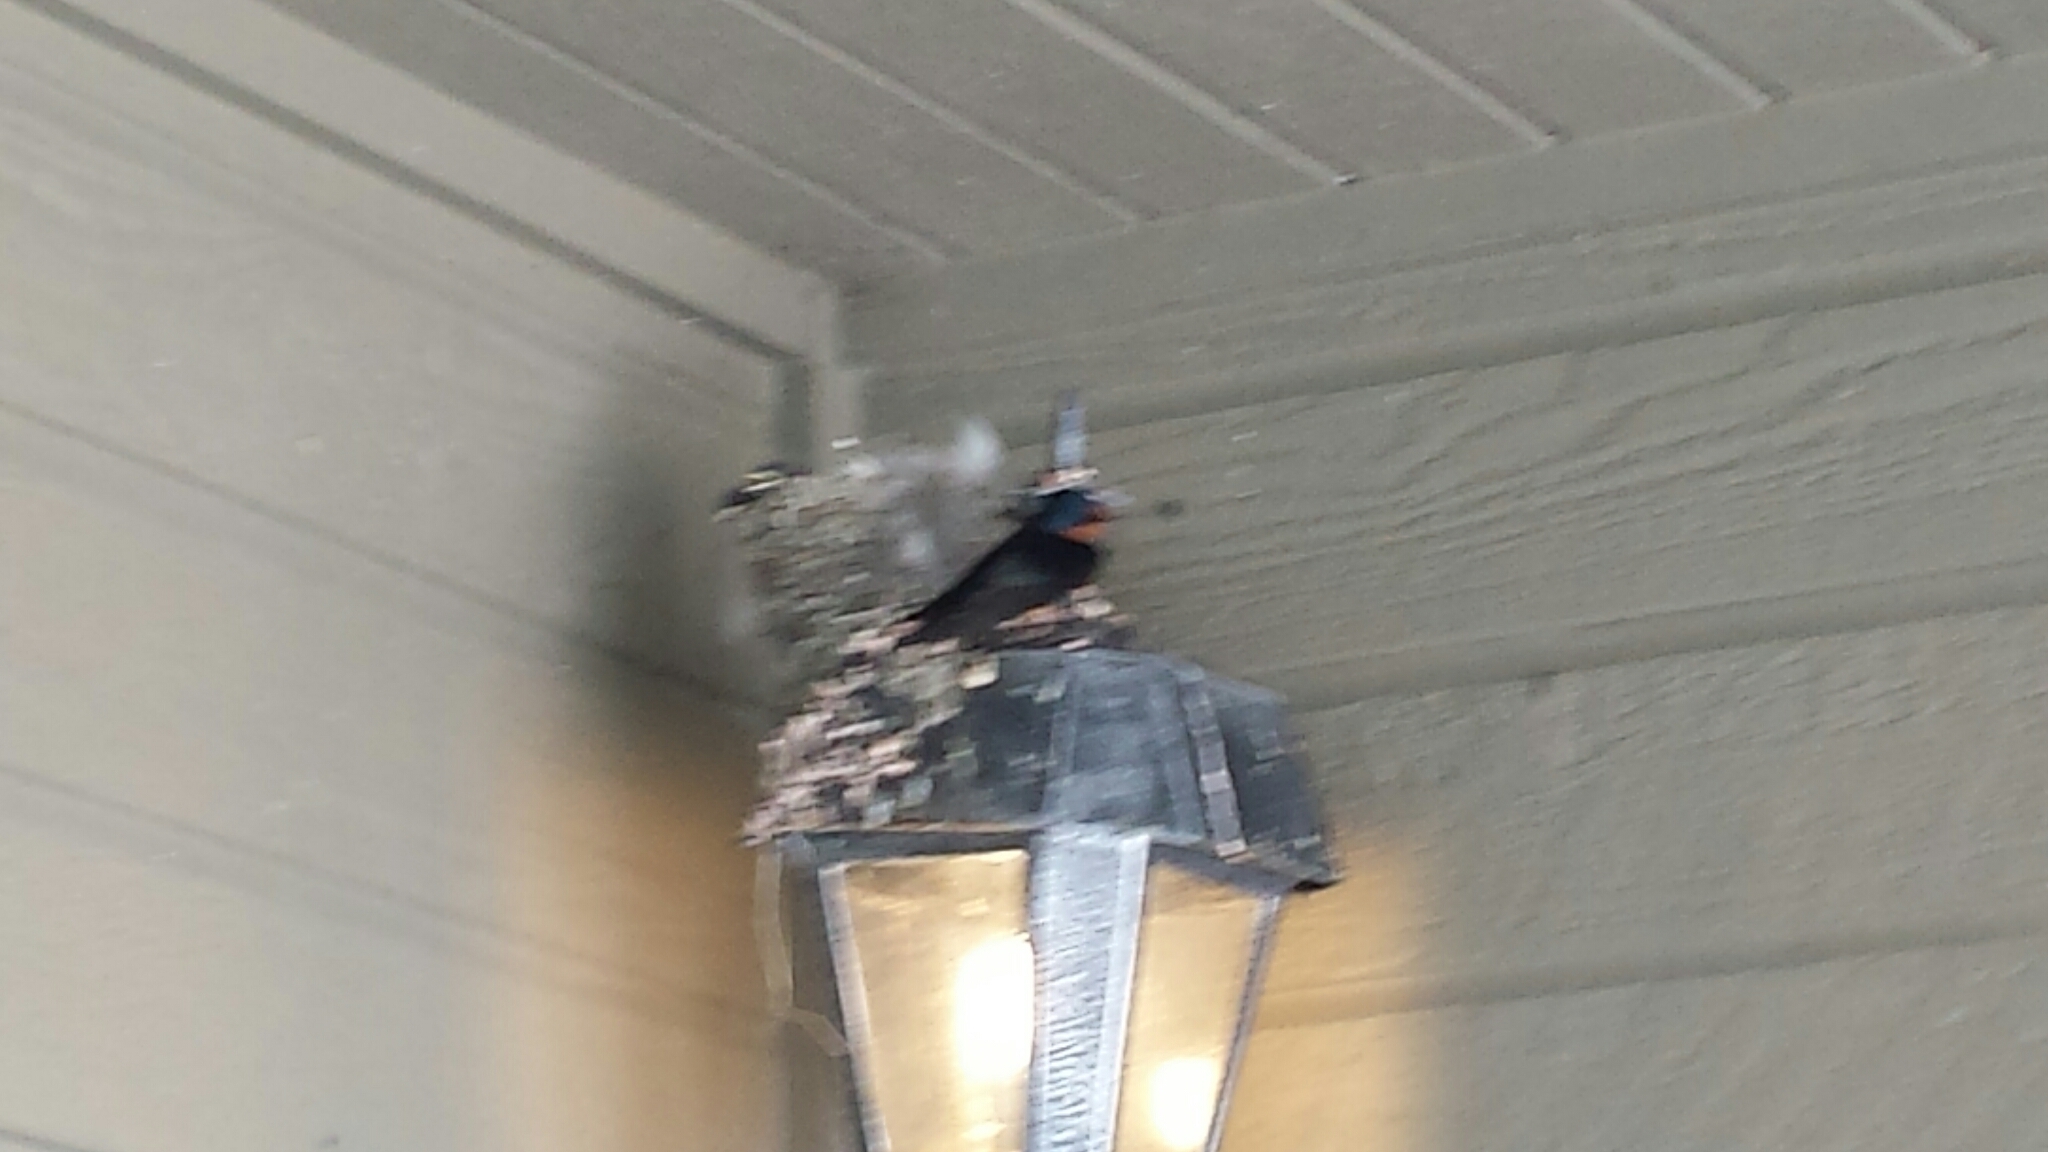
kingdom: Animalia
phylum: Chordata
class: Aves
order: Passeriformes
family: Hirundinidae
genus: Hirundo
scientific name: Hirundo rustica
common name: Barn swallow
